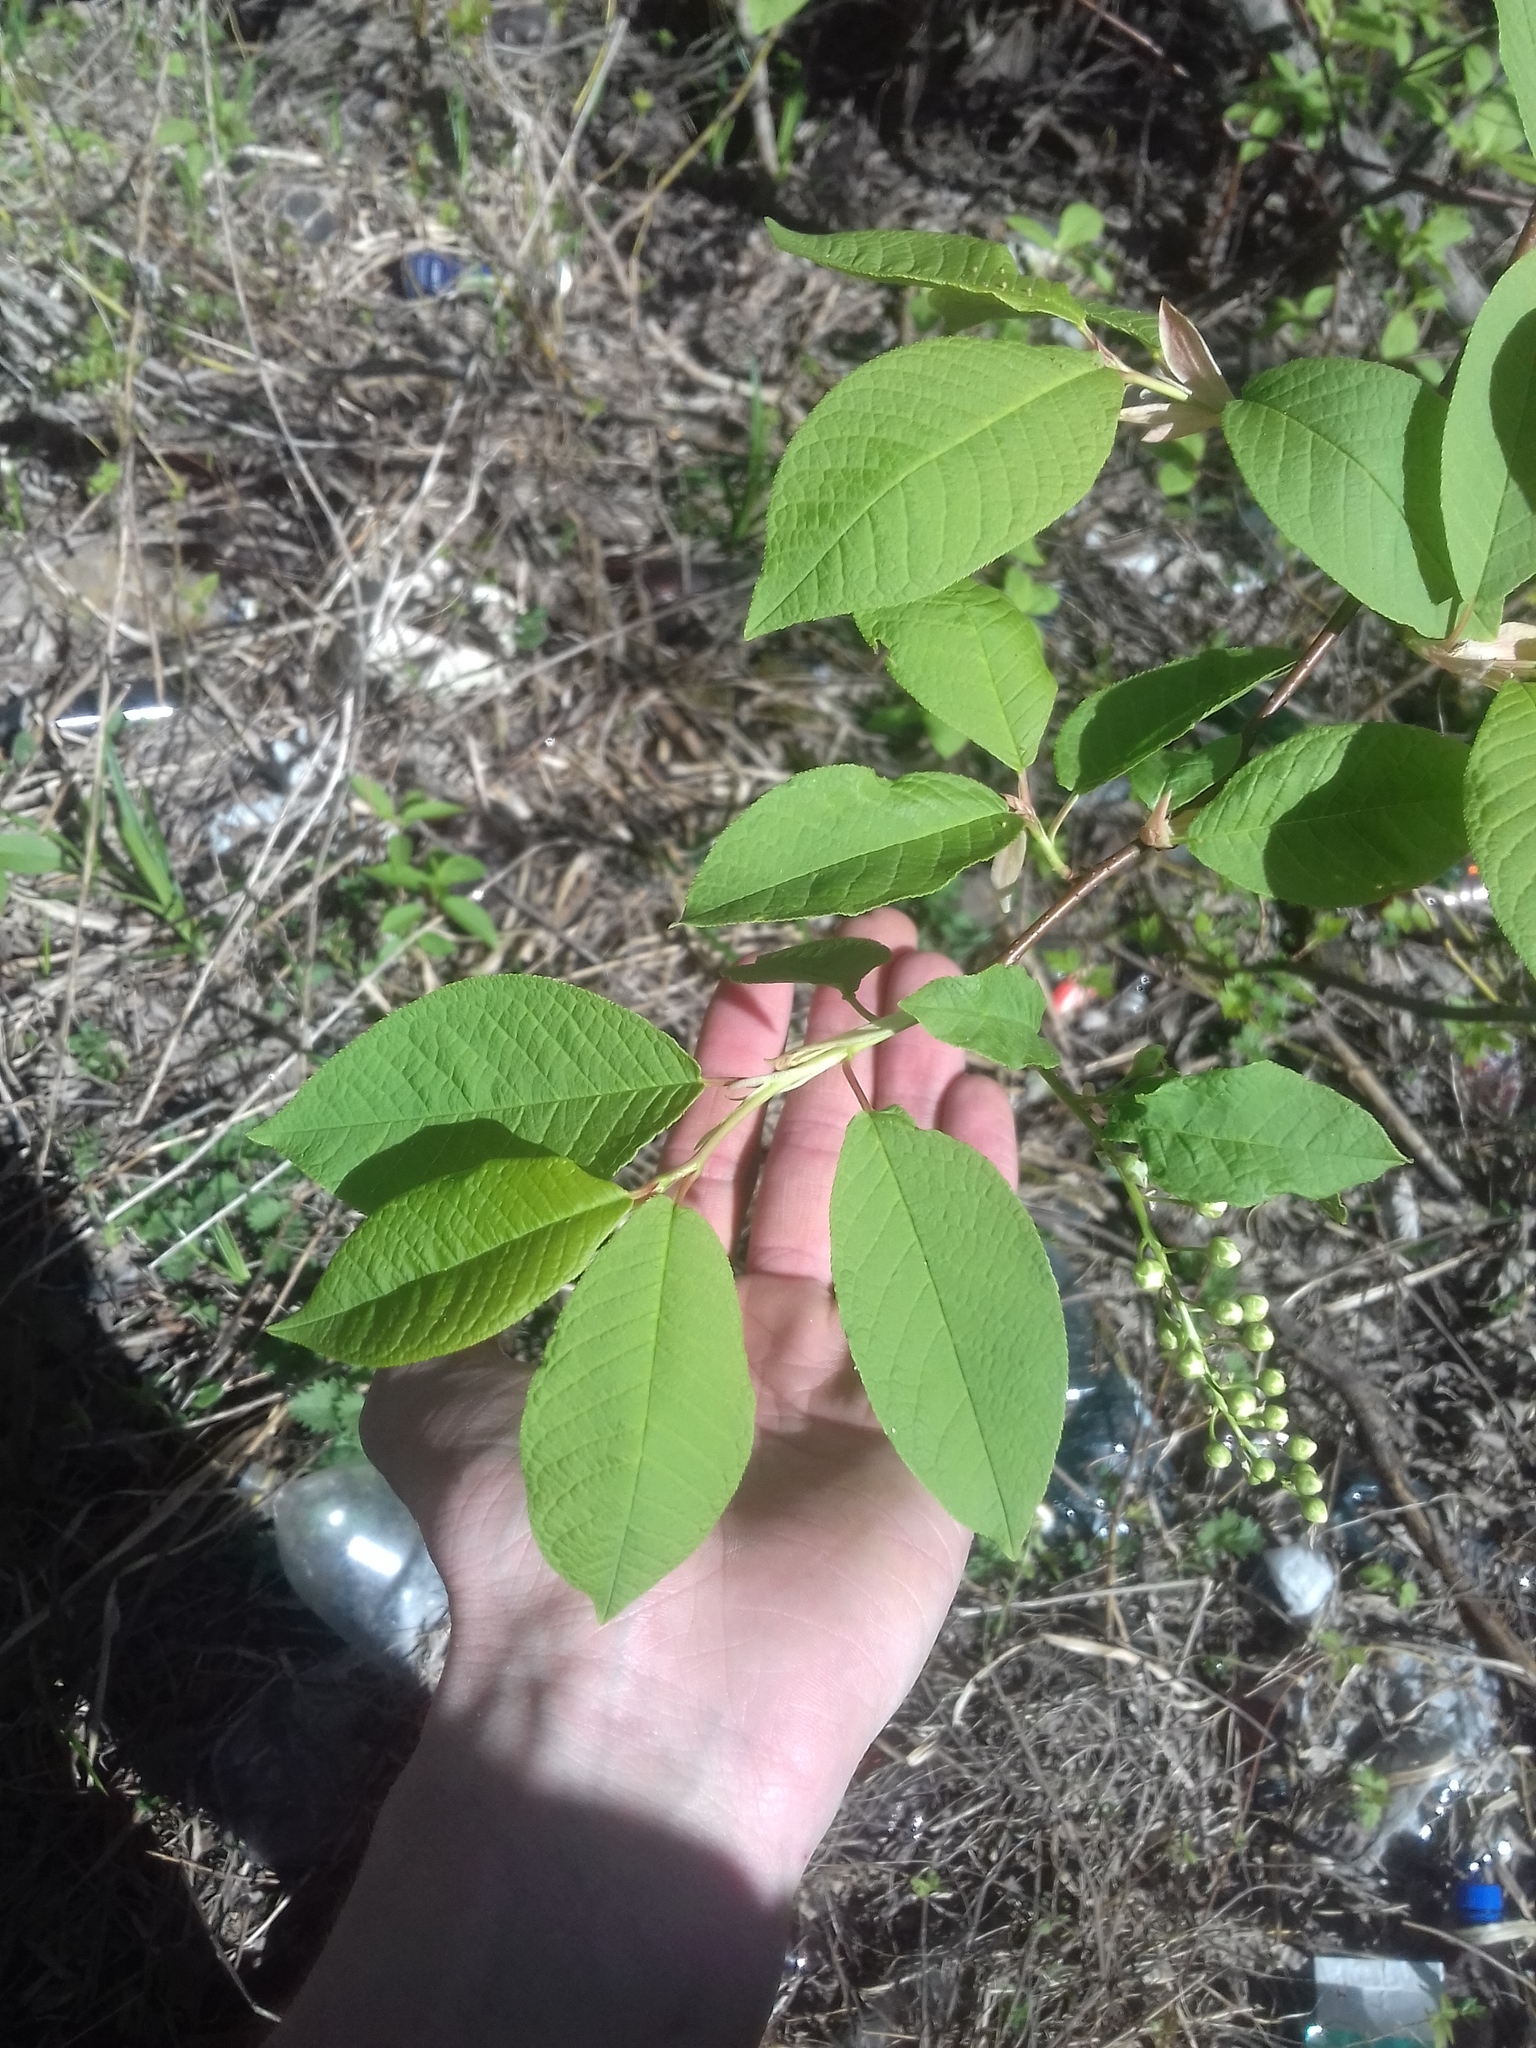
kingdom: Plantae
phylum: Tracheophyta
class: Magnoliopsida
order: Rosales
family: Rosaceae
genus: Prunus
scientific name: Prunus padus
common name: Bird cherry
